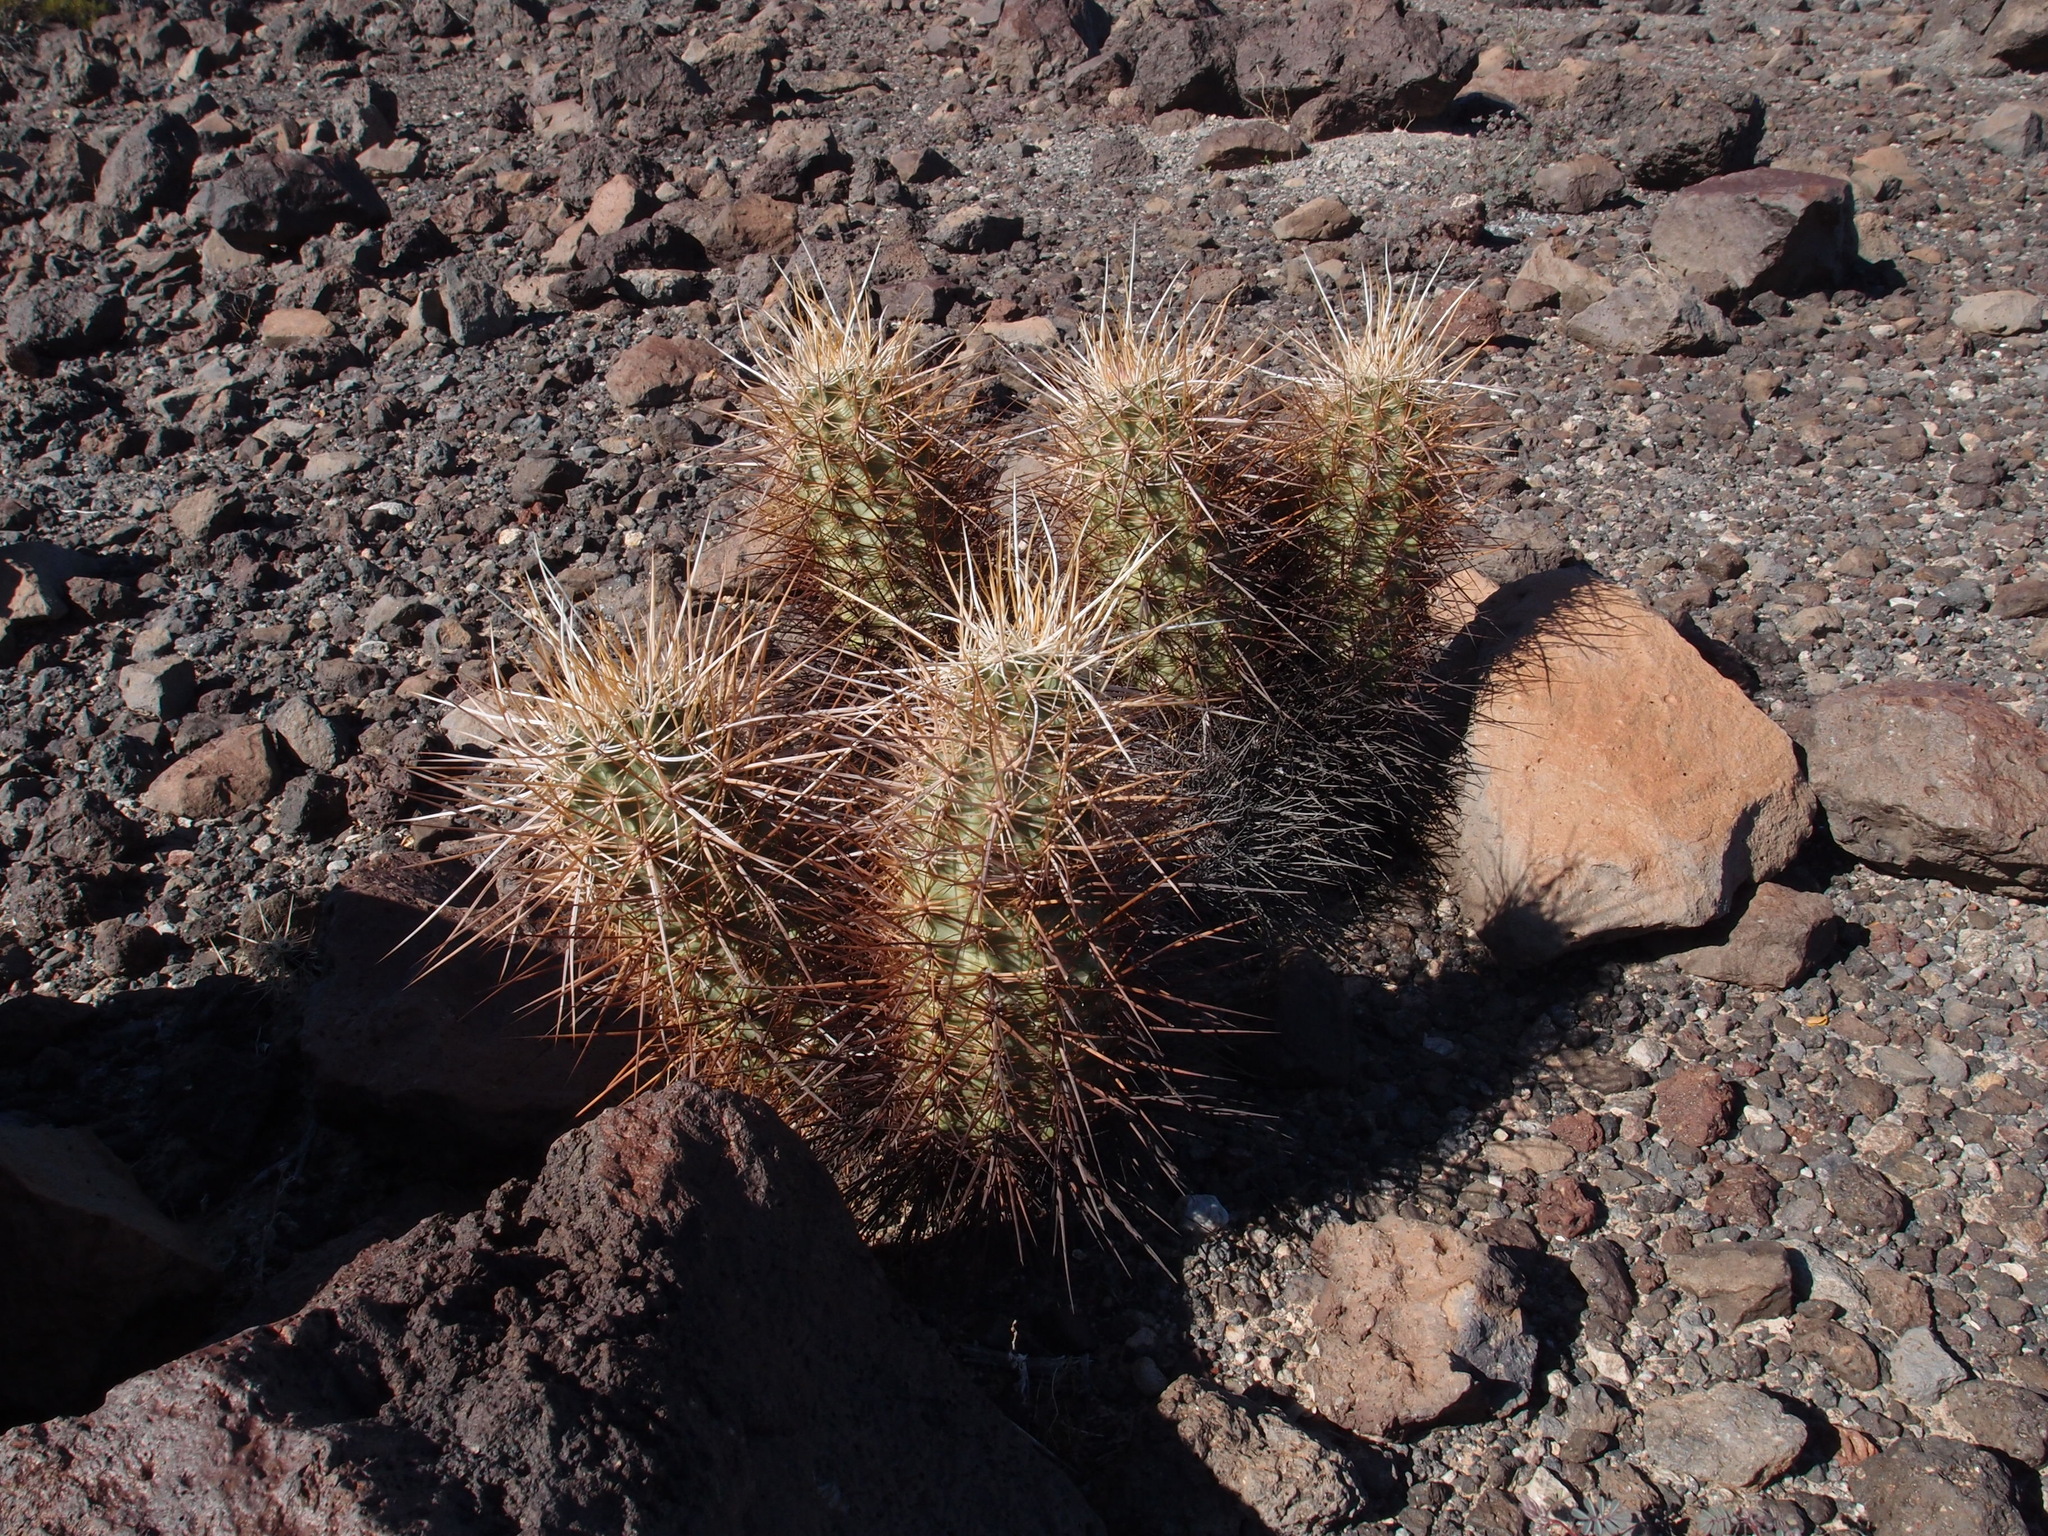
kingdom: Plantae
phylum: Tracheophyta
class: Magnoliopsida
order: Caryophyllales
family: Cactaceae
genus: Echinocereus
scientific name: Echinocereus engelmannii
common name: Engelmann's hedgehog cactus
